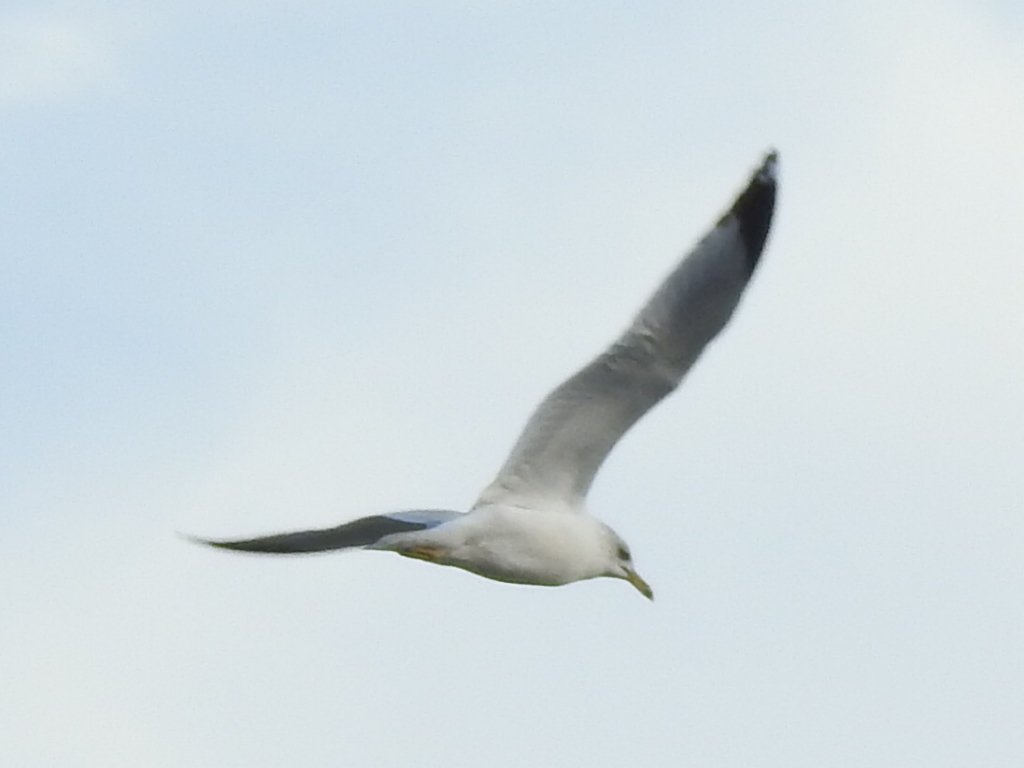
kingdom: Animalia
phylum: Chordata
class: Aves
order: Charadriiformes
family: Laridae
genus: Larus
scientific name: Larus delawarensis
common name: Ring-billed gull
